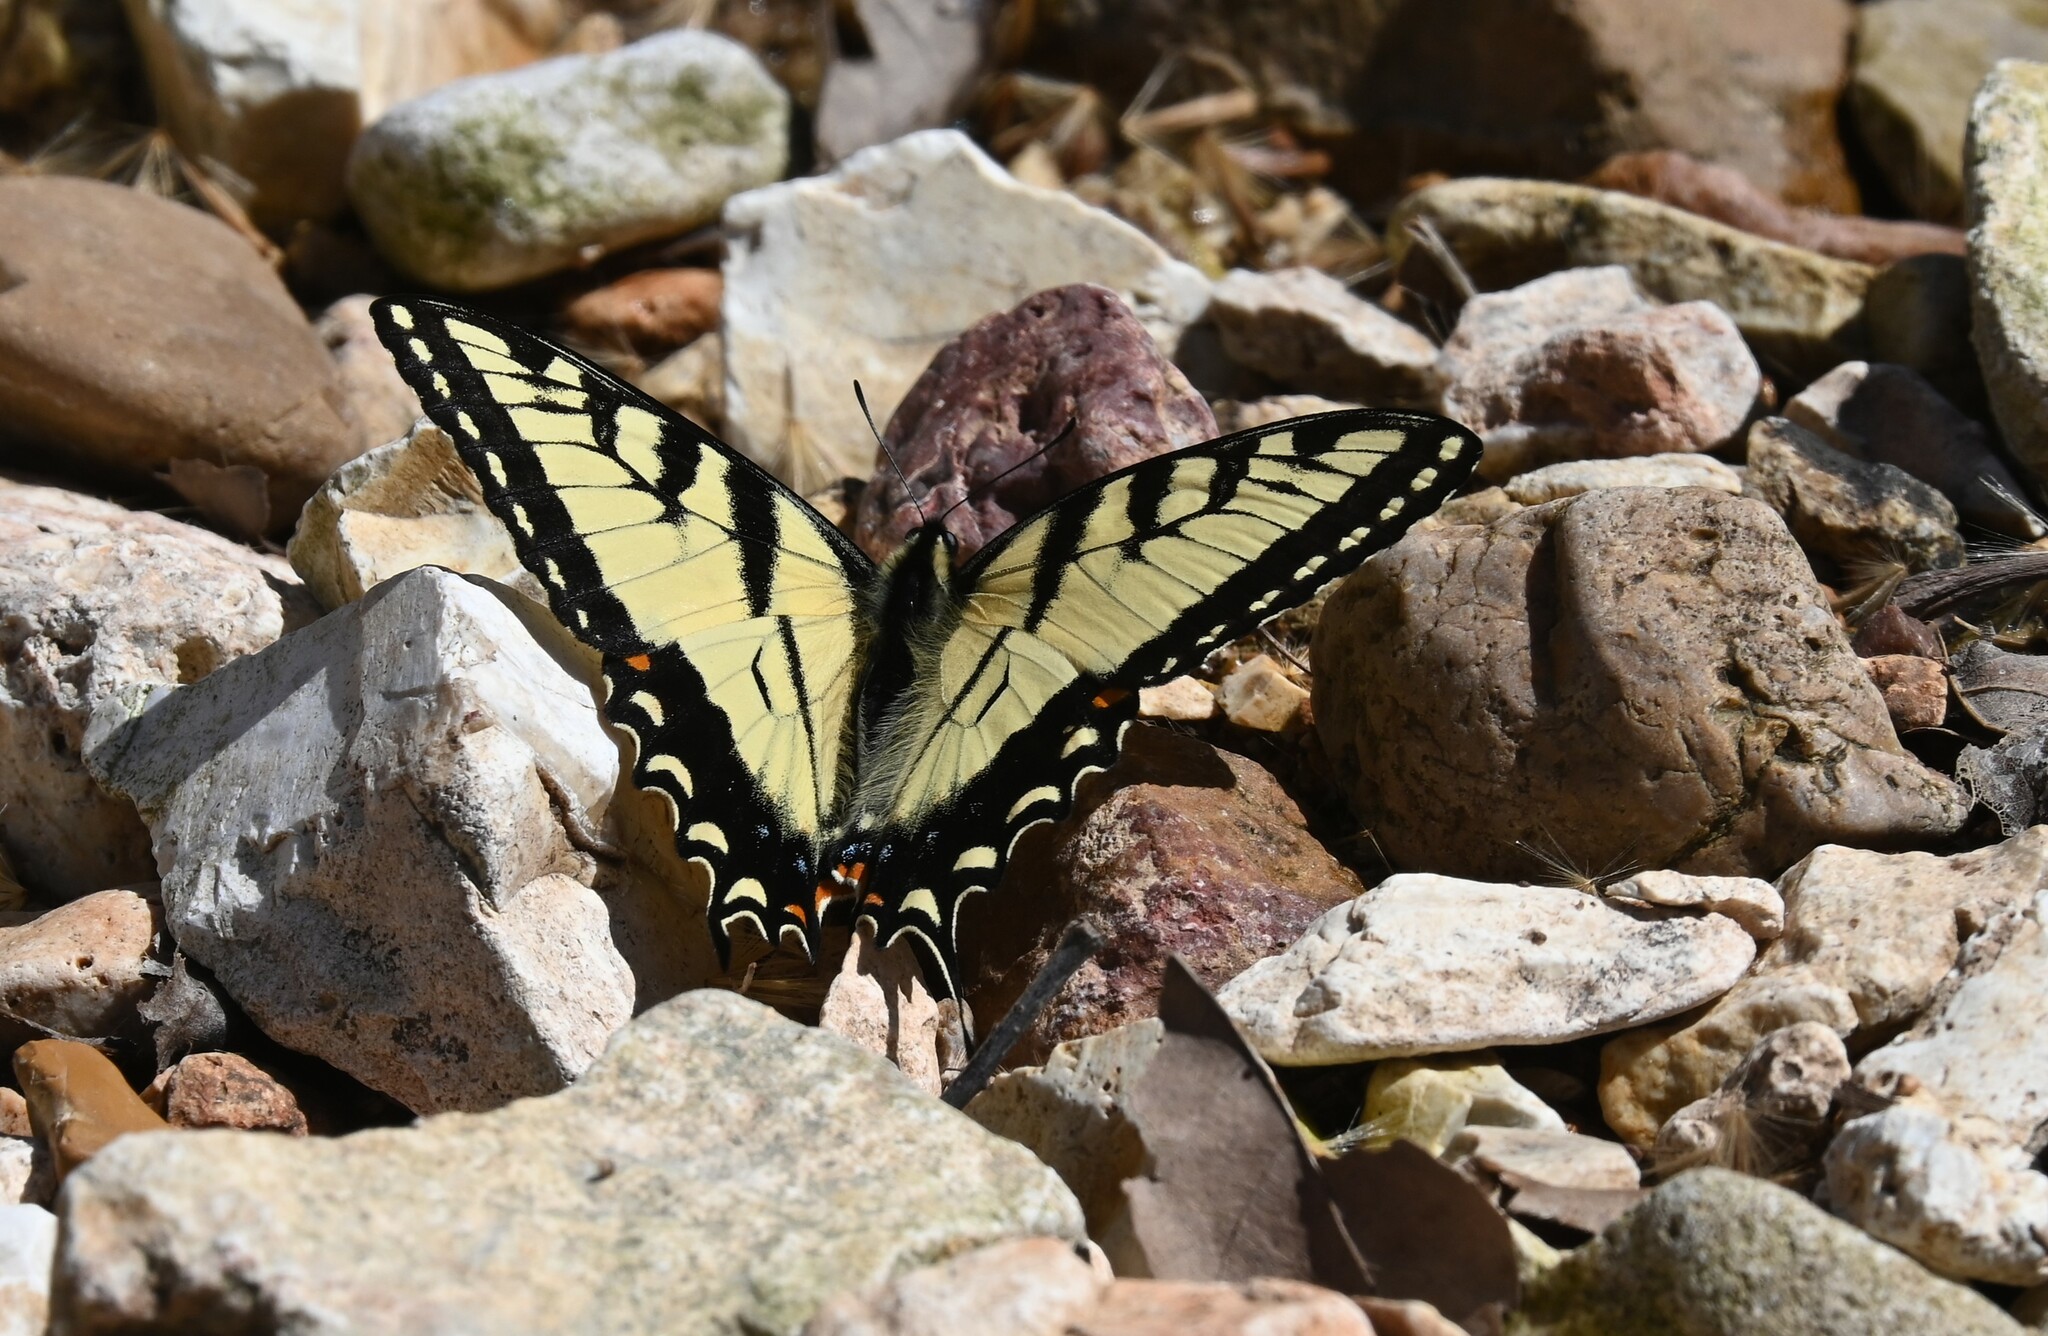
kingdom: Animalia
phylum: Arthropoda
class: Insecta
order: Lepidoptera
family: Papilionidae
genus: Papilio
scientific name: Papilio glaucus
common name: Tiger swallowtail
